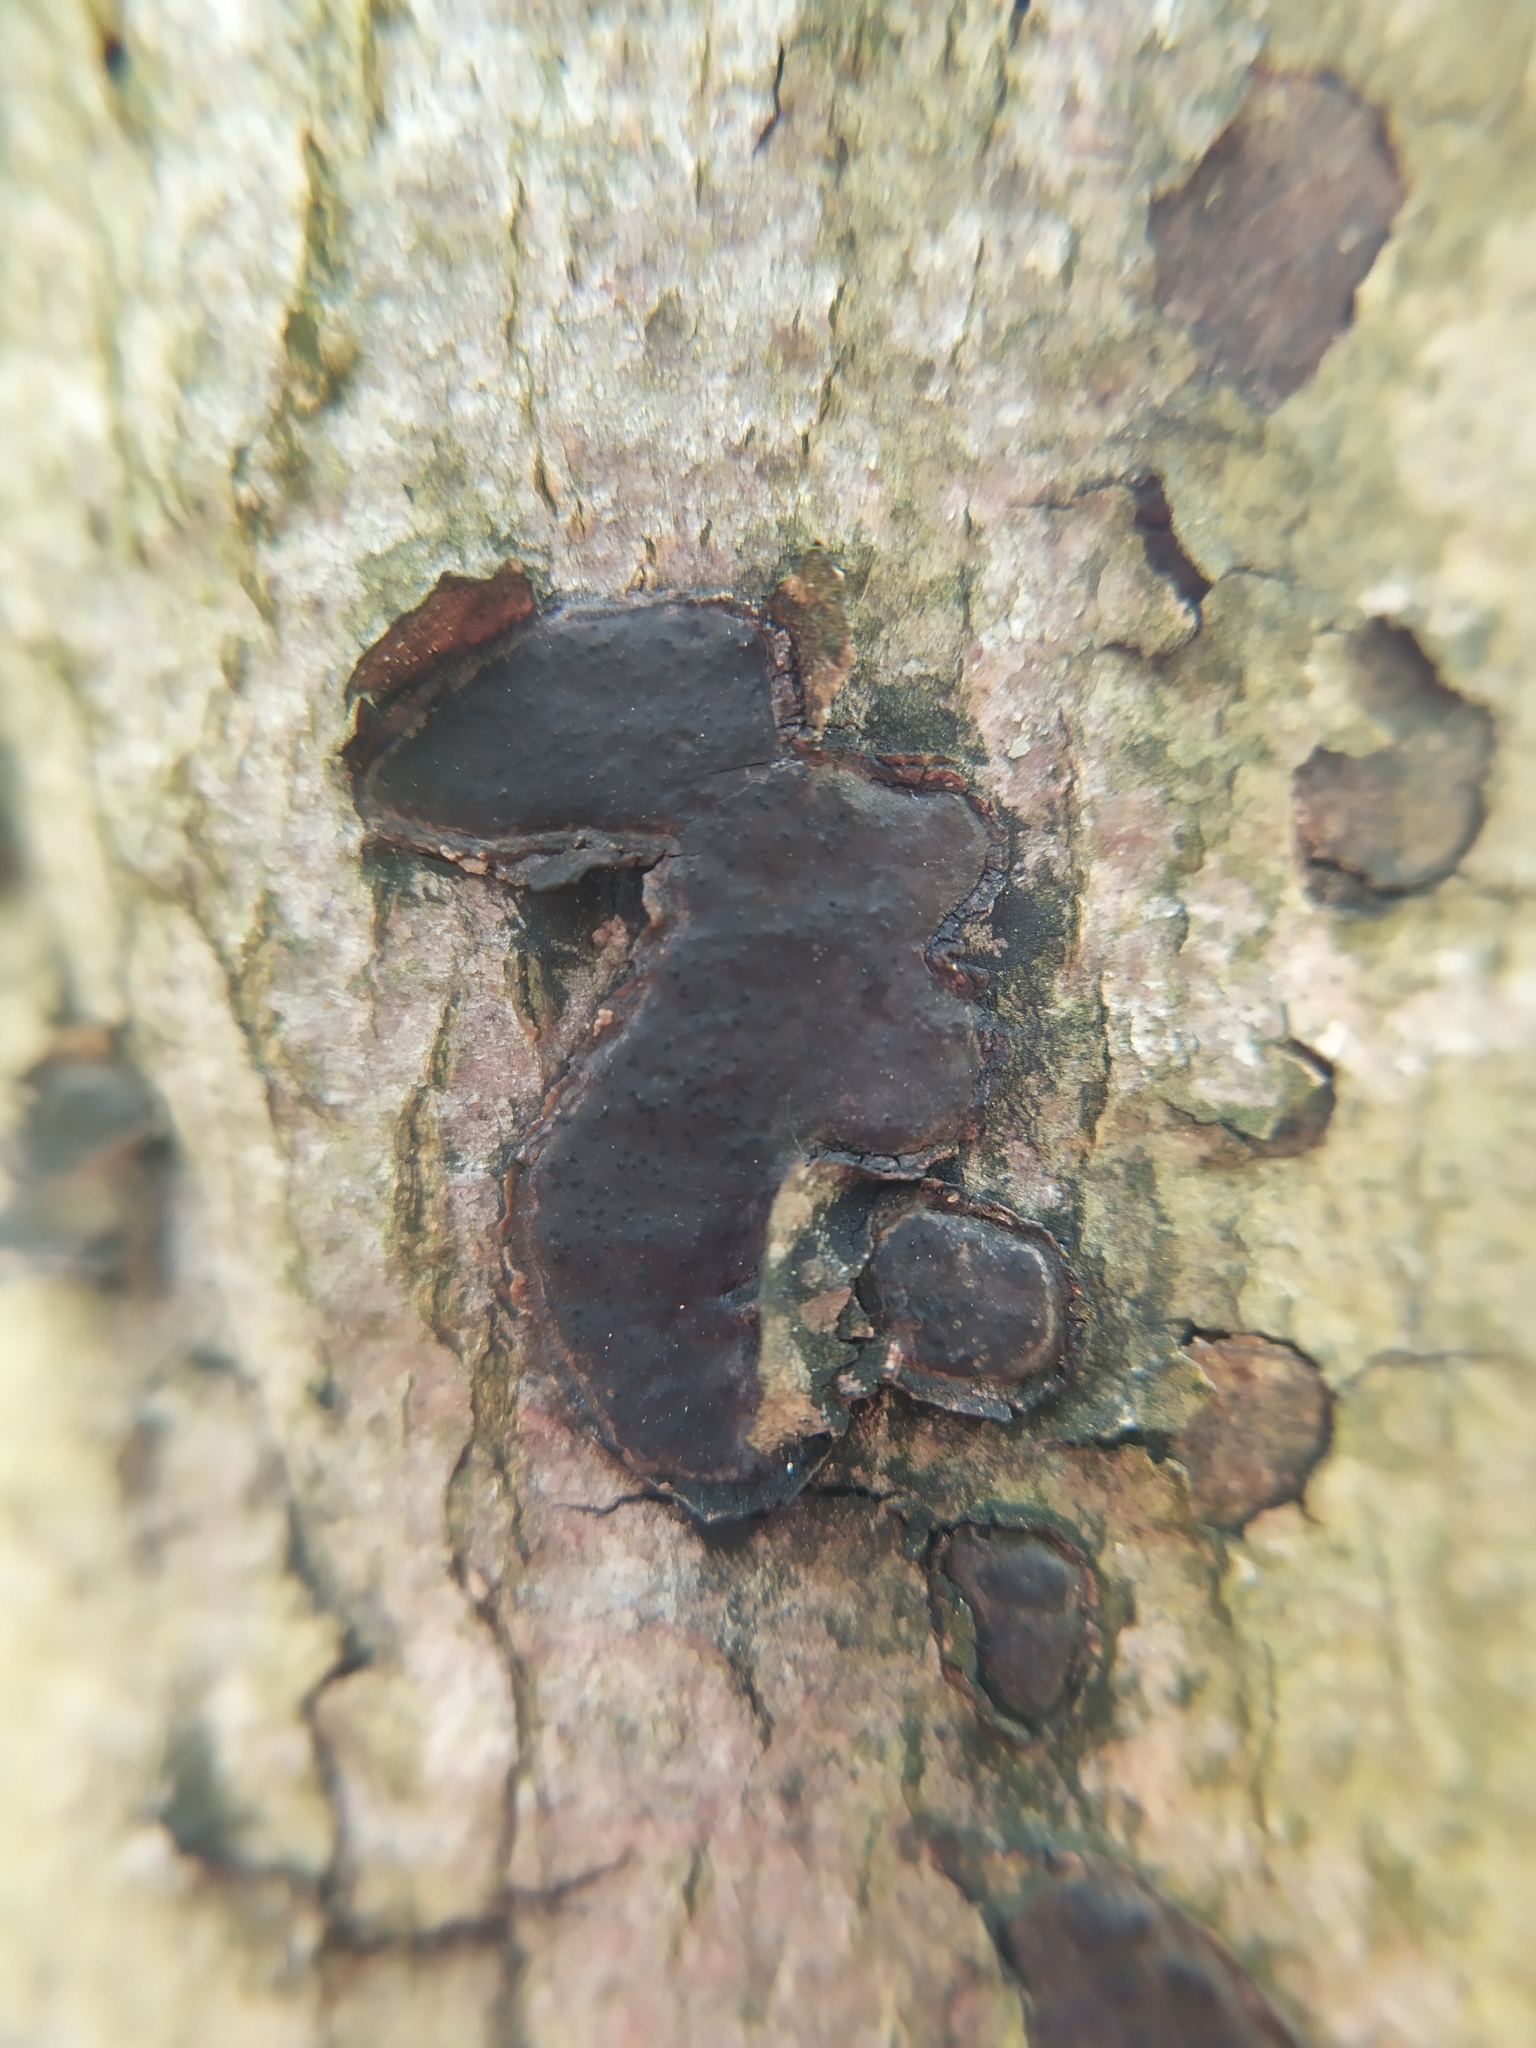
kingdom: Fungi
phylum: Ascomycota
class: Sordariomycetes
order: Xylariales
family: Graphostromataceae
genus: Biscogniauxia
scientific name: Biscogniauxia nummularia
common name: Beech tarcrust
